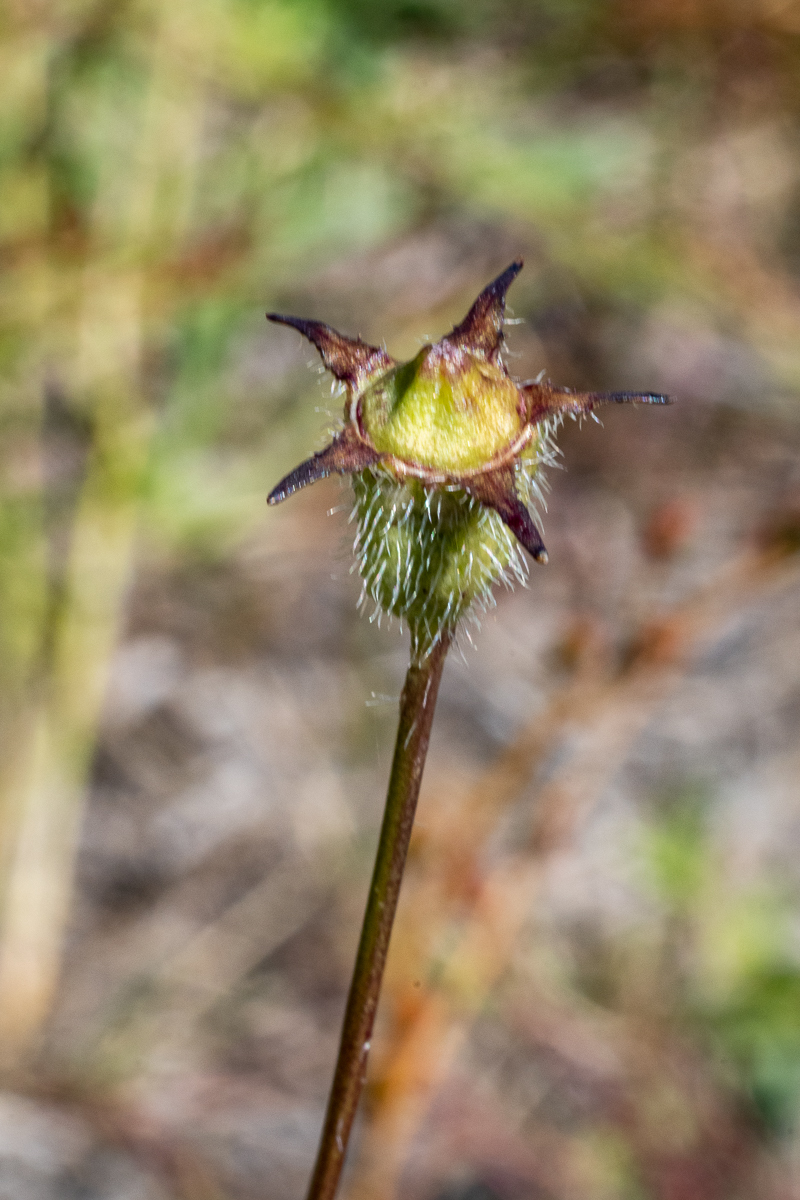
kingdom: Plantae
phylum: Tracheophyta
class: Magnoliopsida
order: Asterales
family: Campanulaceae
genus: Wahlenbergia
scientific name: Wahlenbergia capensis
